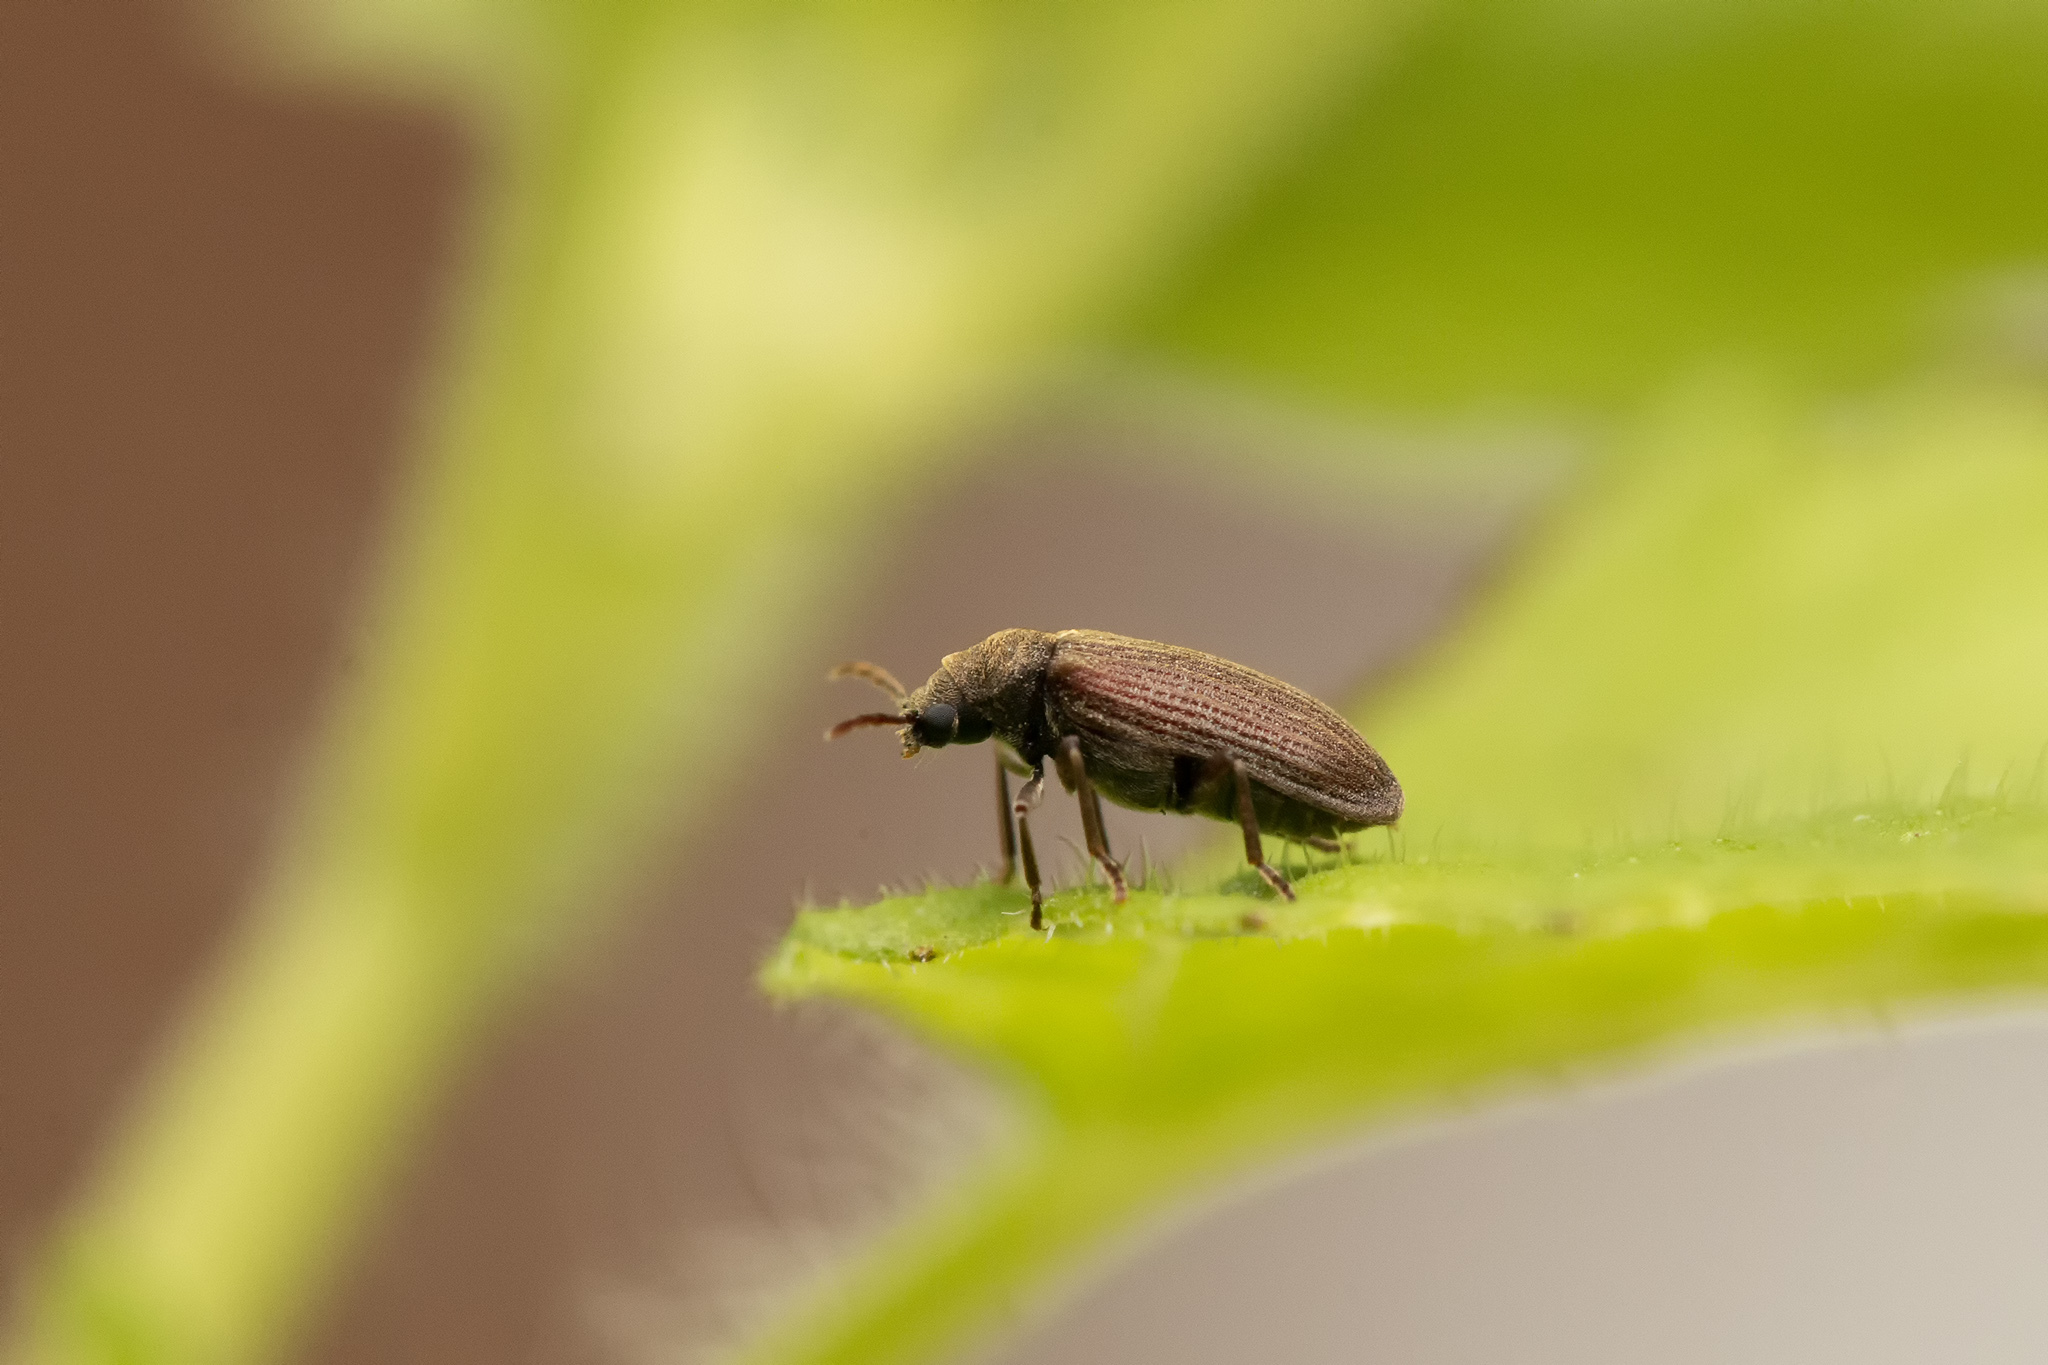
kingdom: Animalia
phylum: Arthropoda
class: Insecta
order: Coleoptera
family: Anobiidae
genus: Grynobius
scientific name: Grynobius planus
